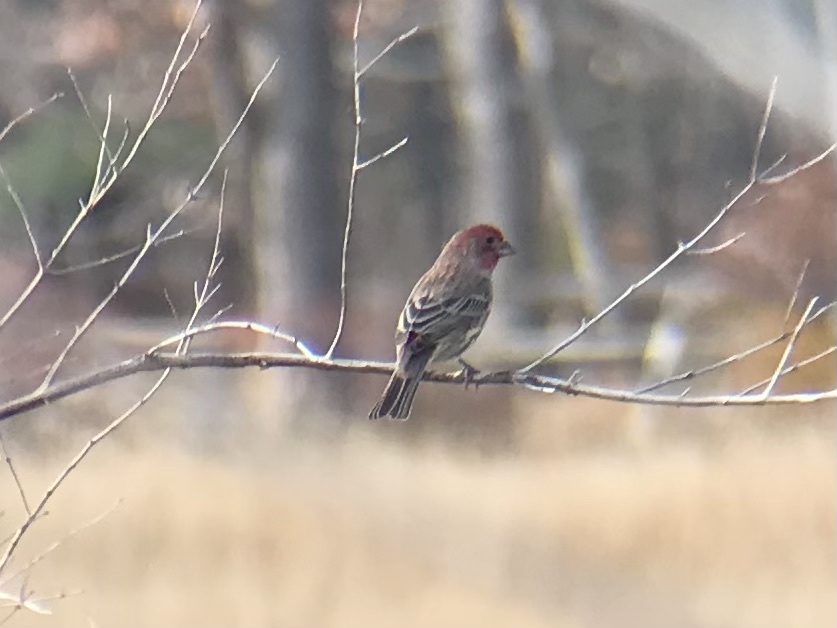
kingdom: Animalia
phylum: Chordata
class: Aves
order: Passeriformes
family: Fringillidae
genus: Haemorhous
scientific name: Haemorhous mexicanus
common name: House finch
